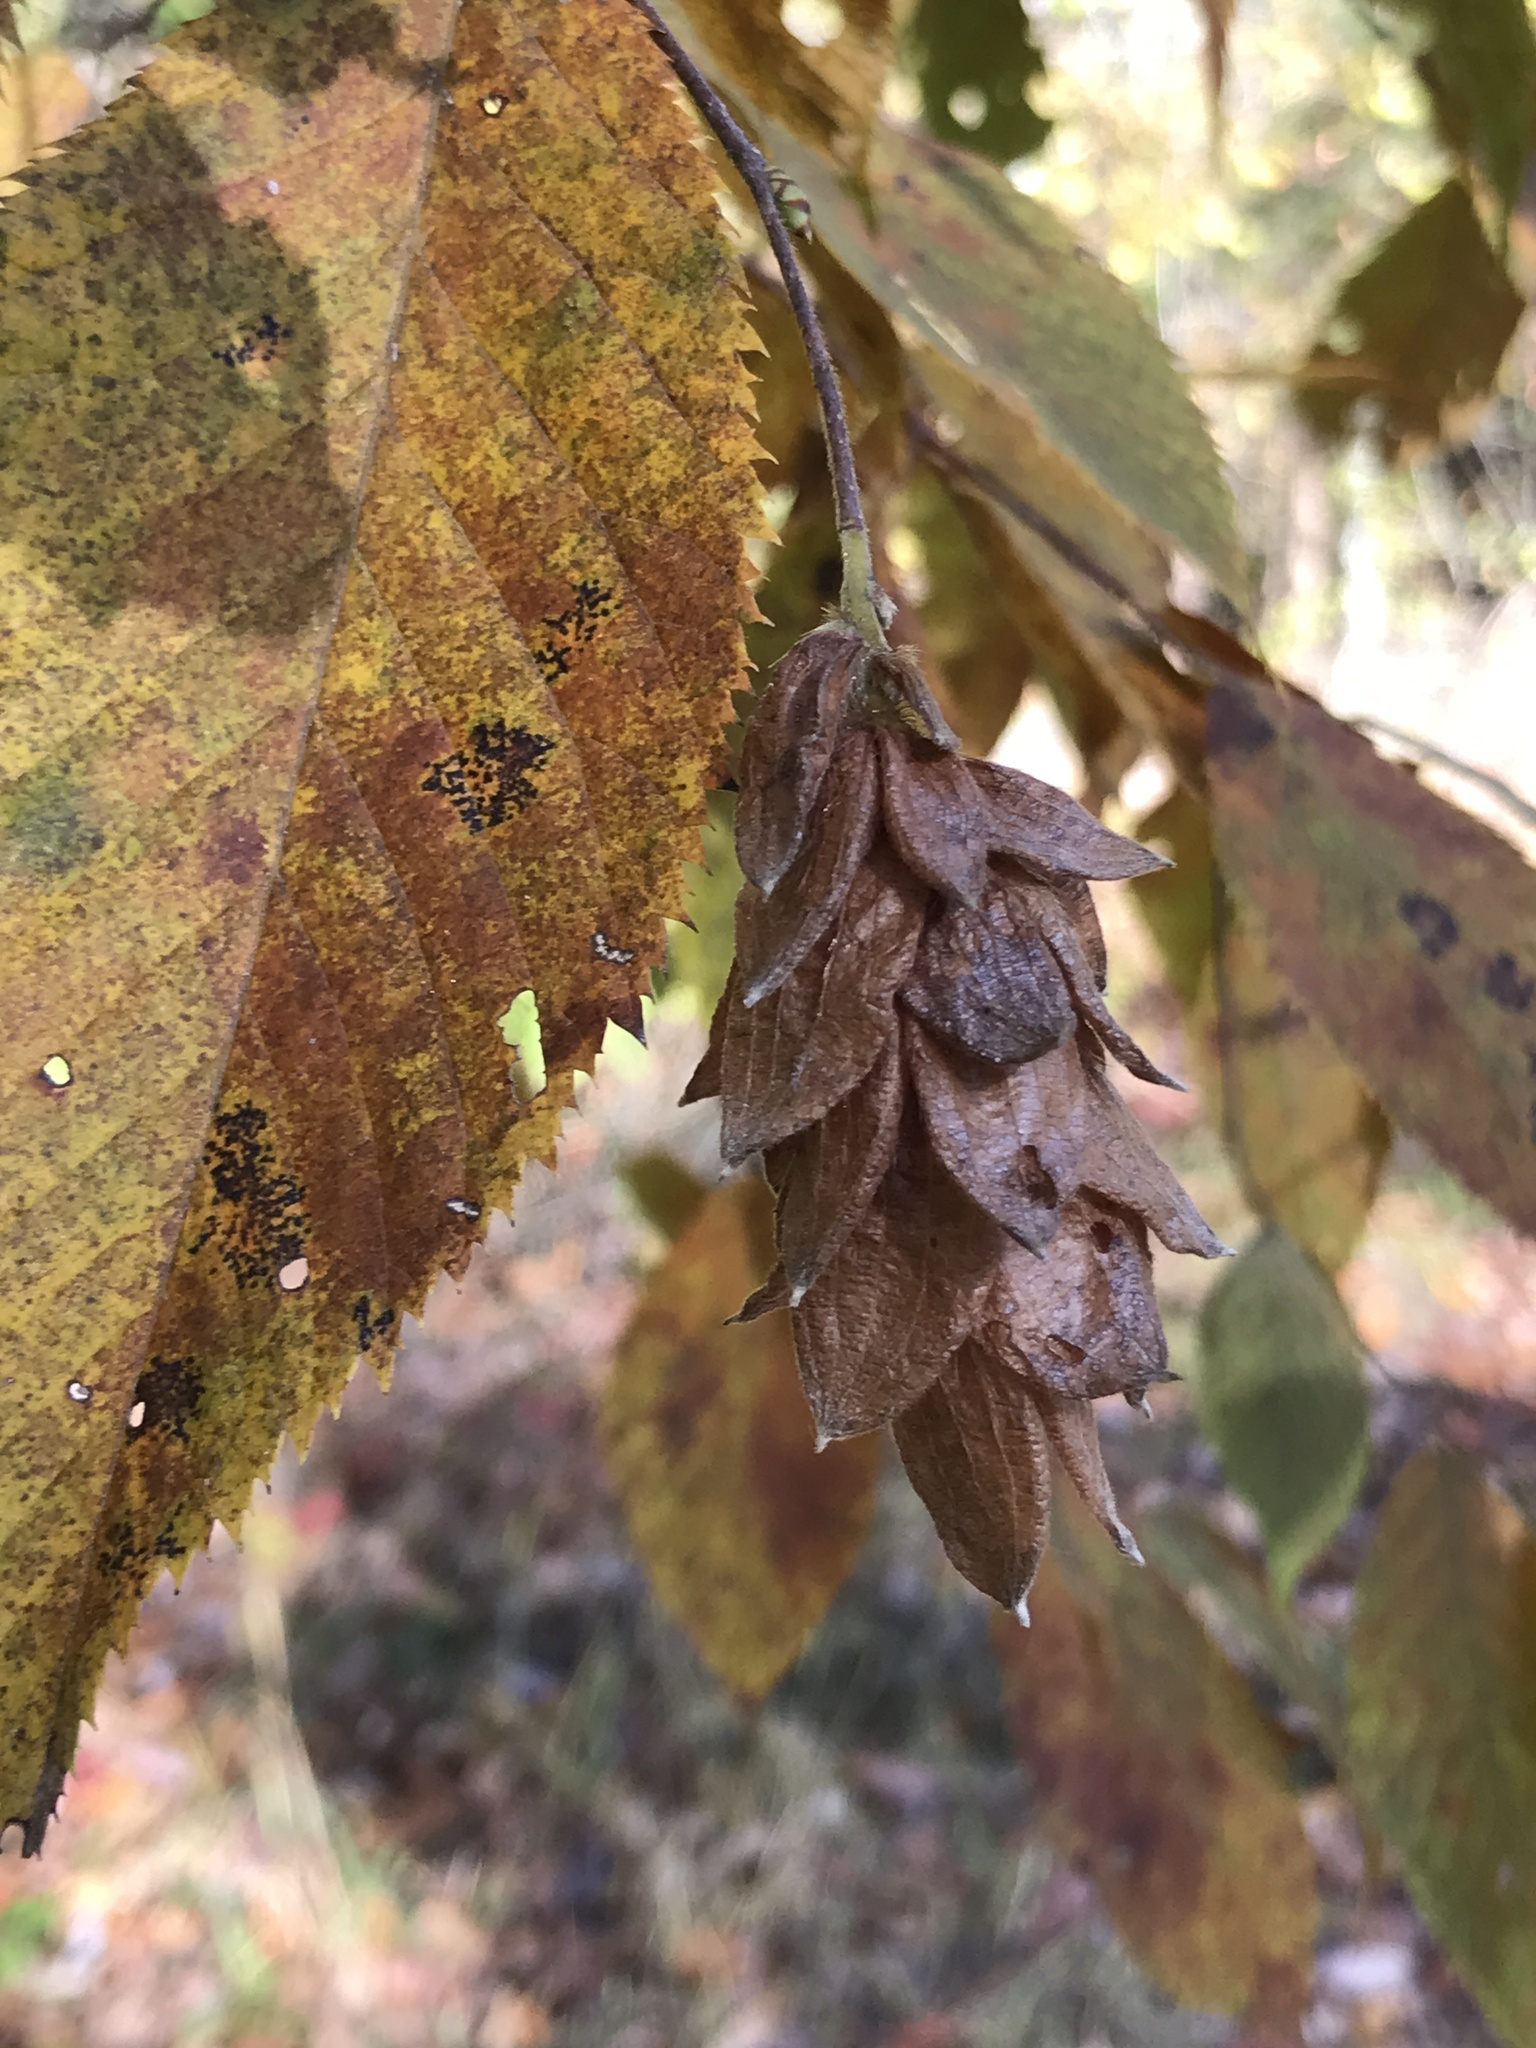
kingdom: Plantae
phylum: Tracheophyta
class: Magnoliopsida
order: Fagales
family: Betulaceae
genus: Ostrya
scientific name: Ostrya virginiana
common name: Ironwood
